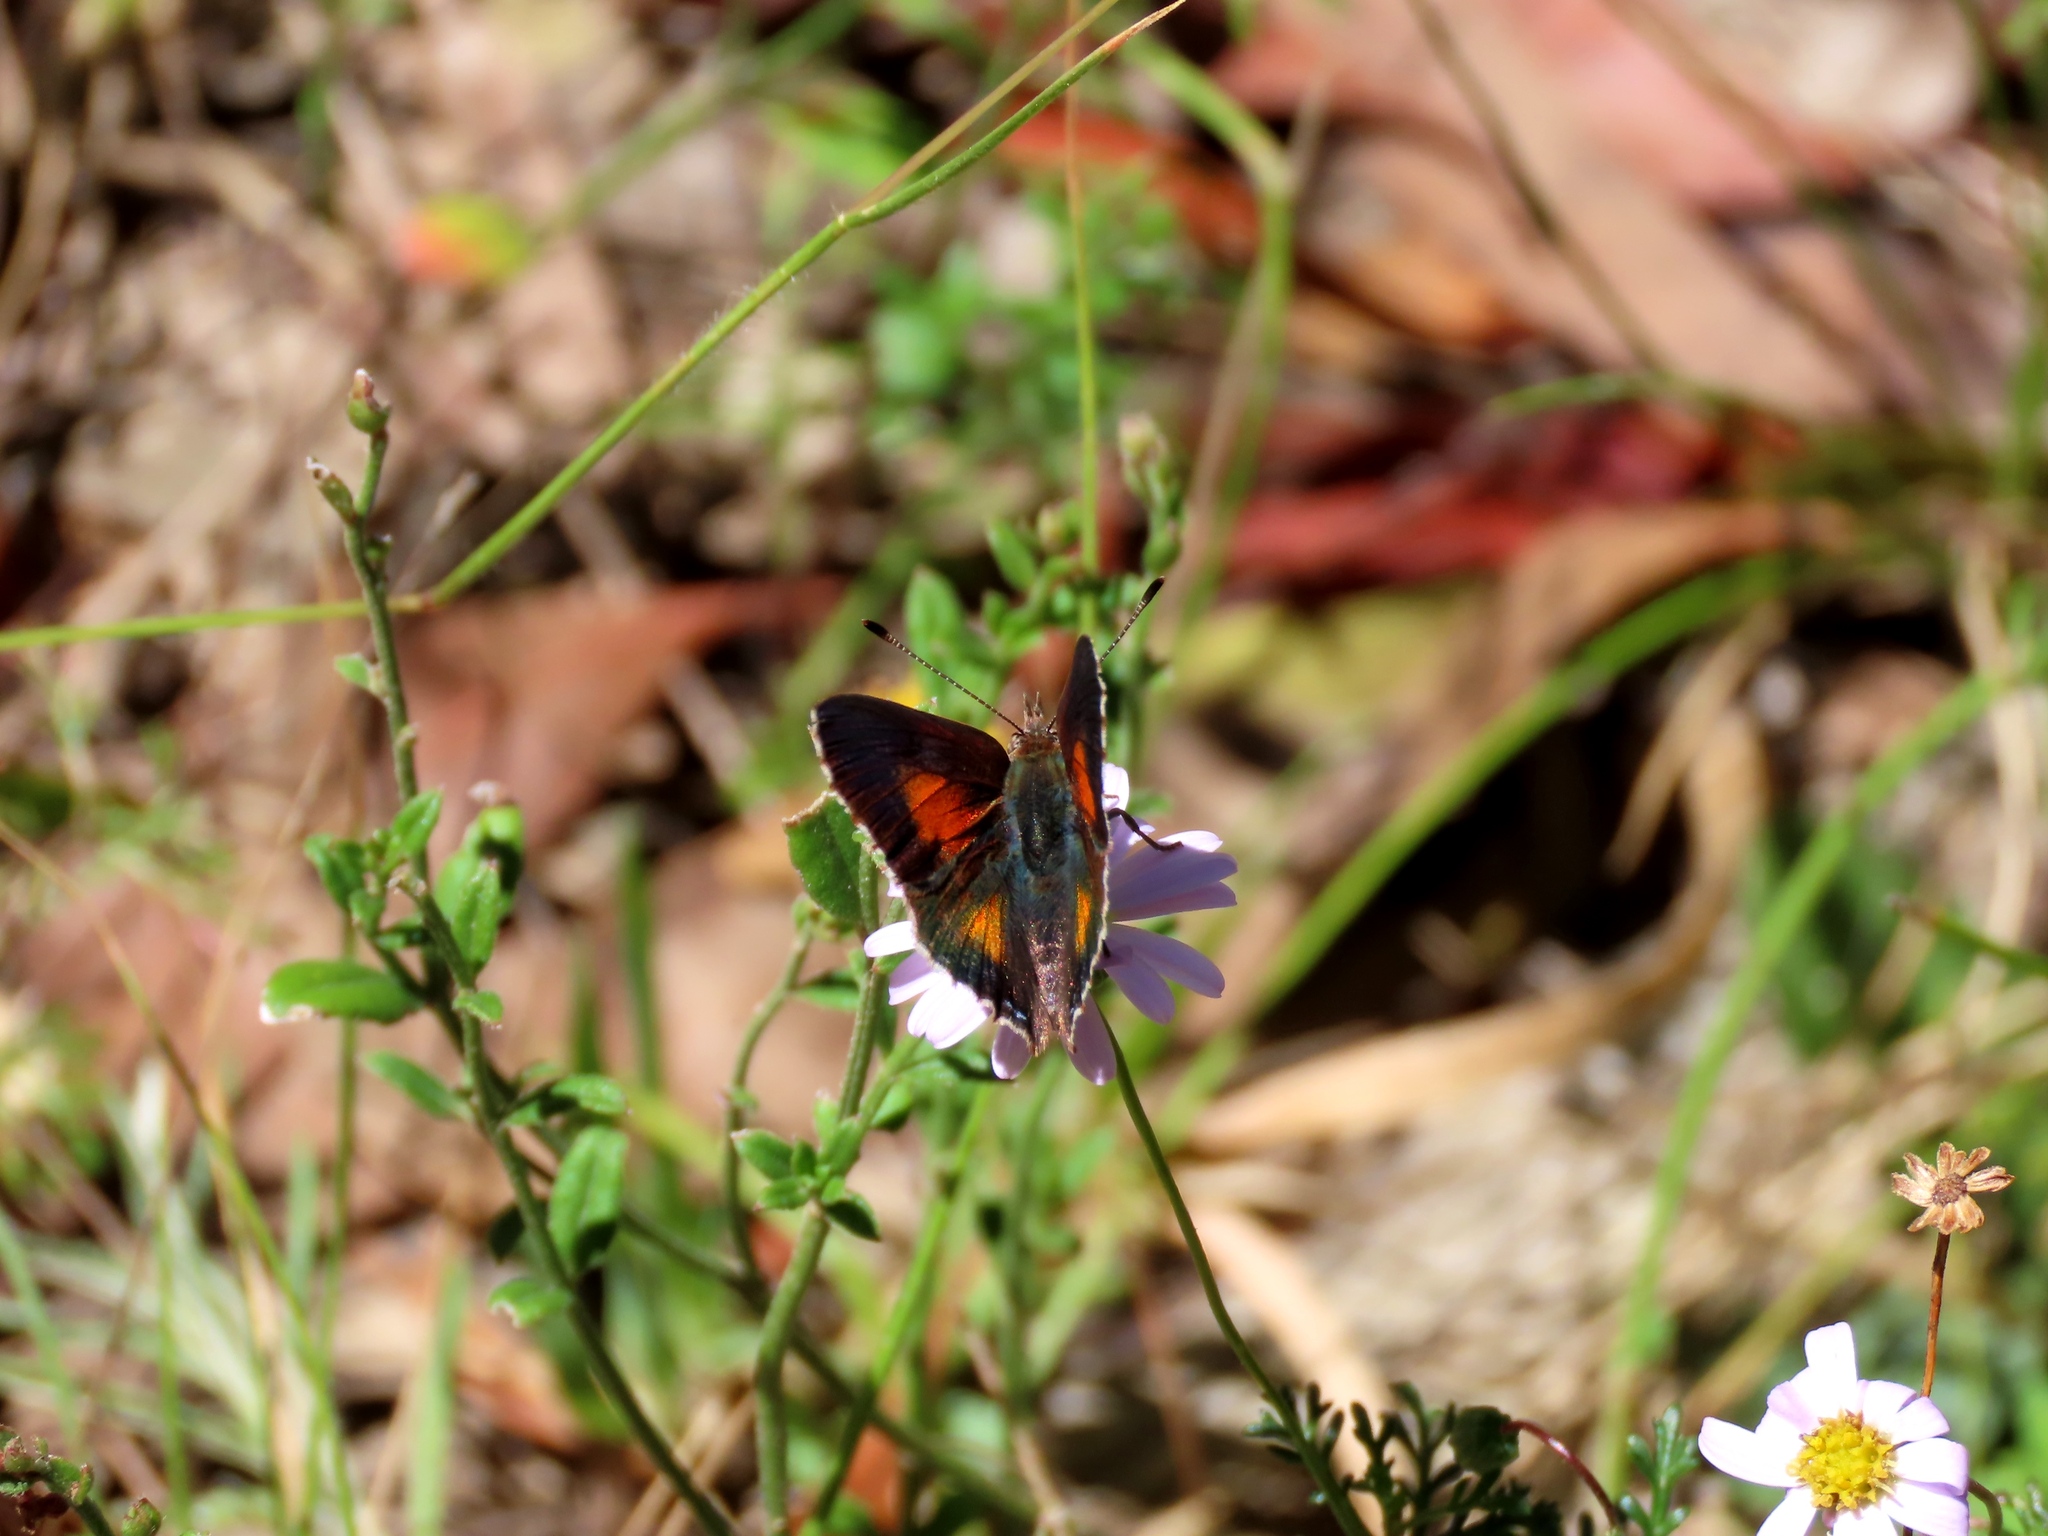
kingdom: Animalia
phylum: Arthropoda
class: Insecta
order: Lepidoptera
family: Lycaenidae
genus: Paralucia
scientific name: Paralucia aurifer
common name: Bright copper
